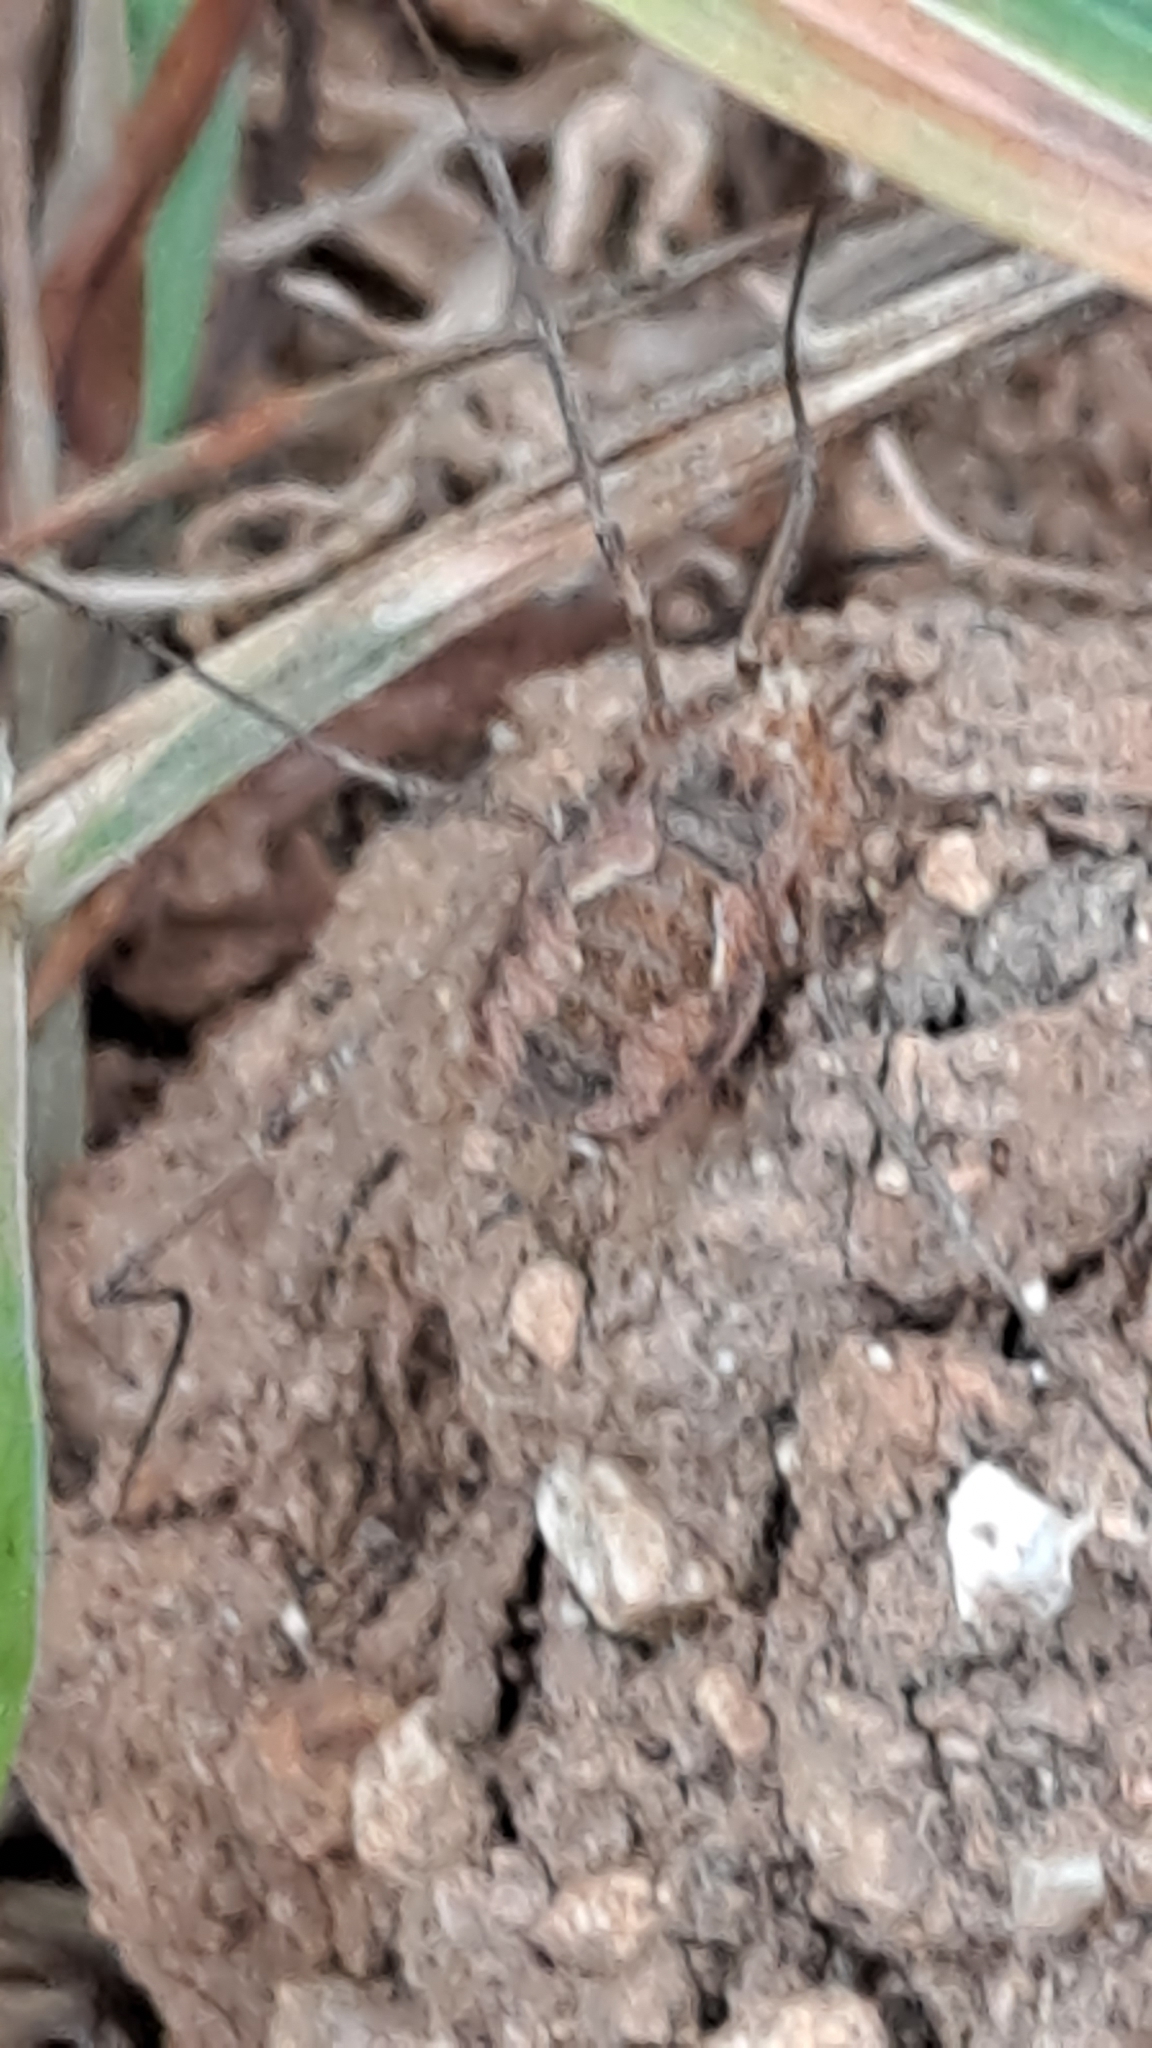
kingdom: Animalia
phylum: Arthropoda
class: Arachnida
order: Opiliones
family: Phalangiidae
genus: Phalangium
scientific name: Phalangium opilio
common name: Daddy longleg
